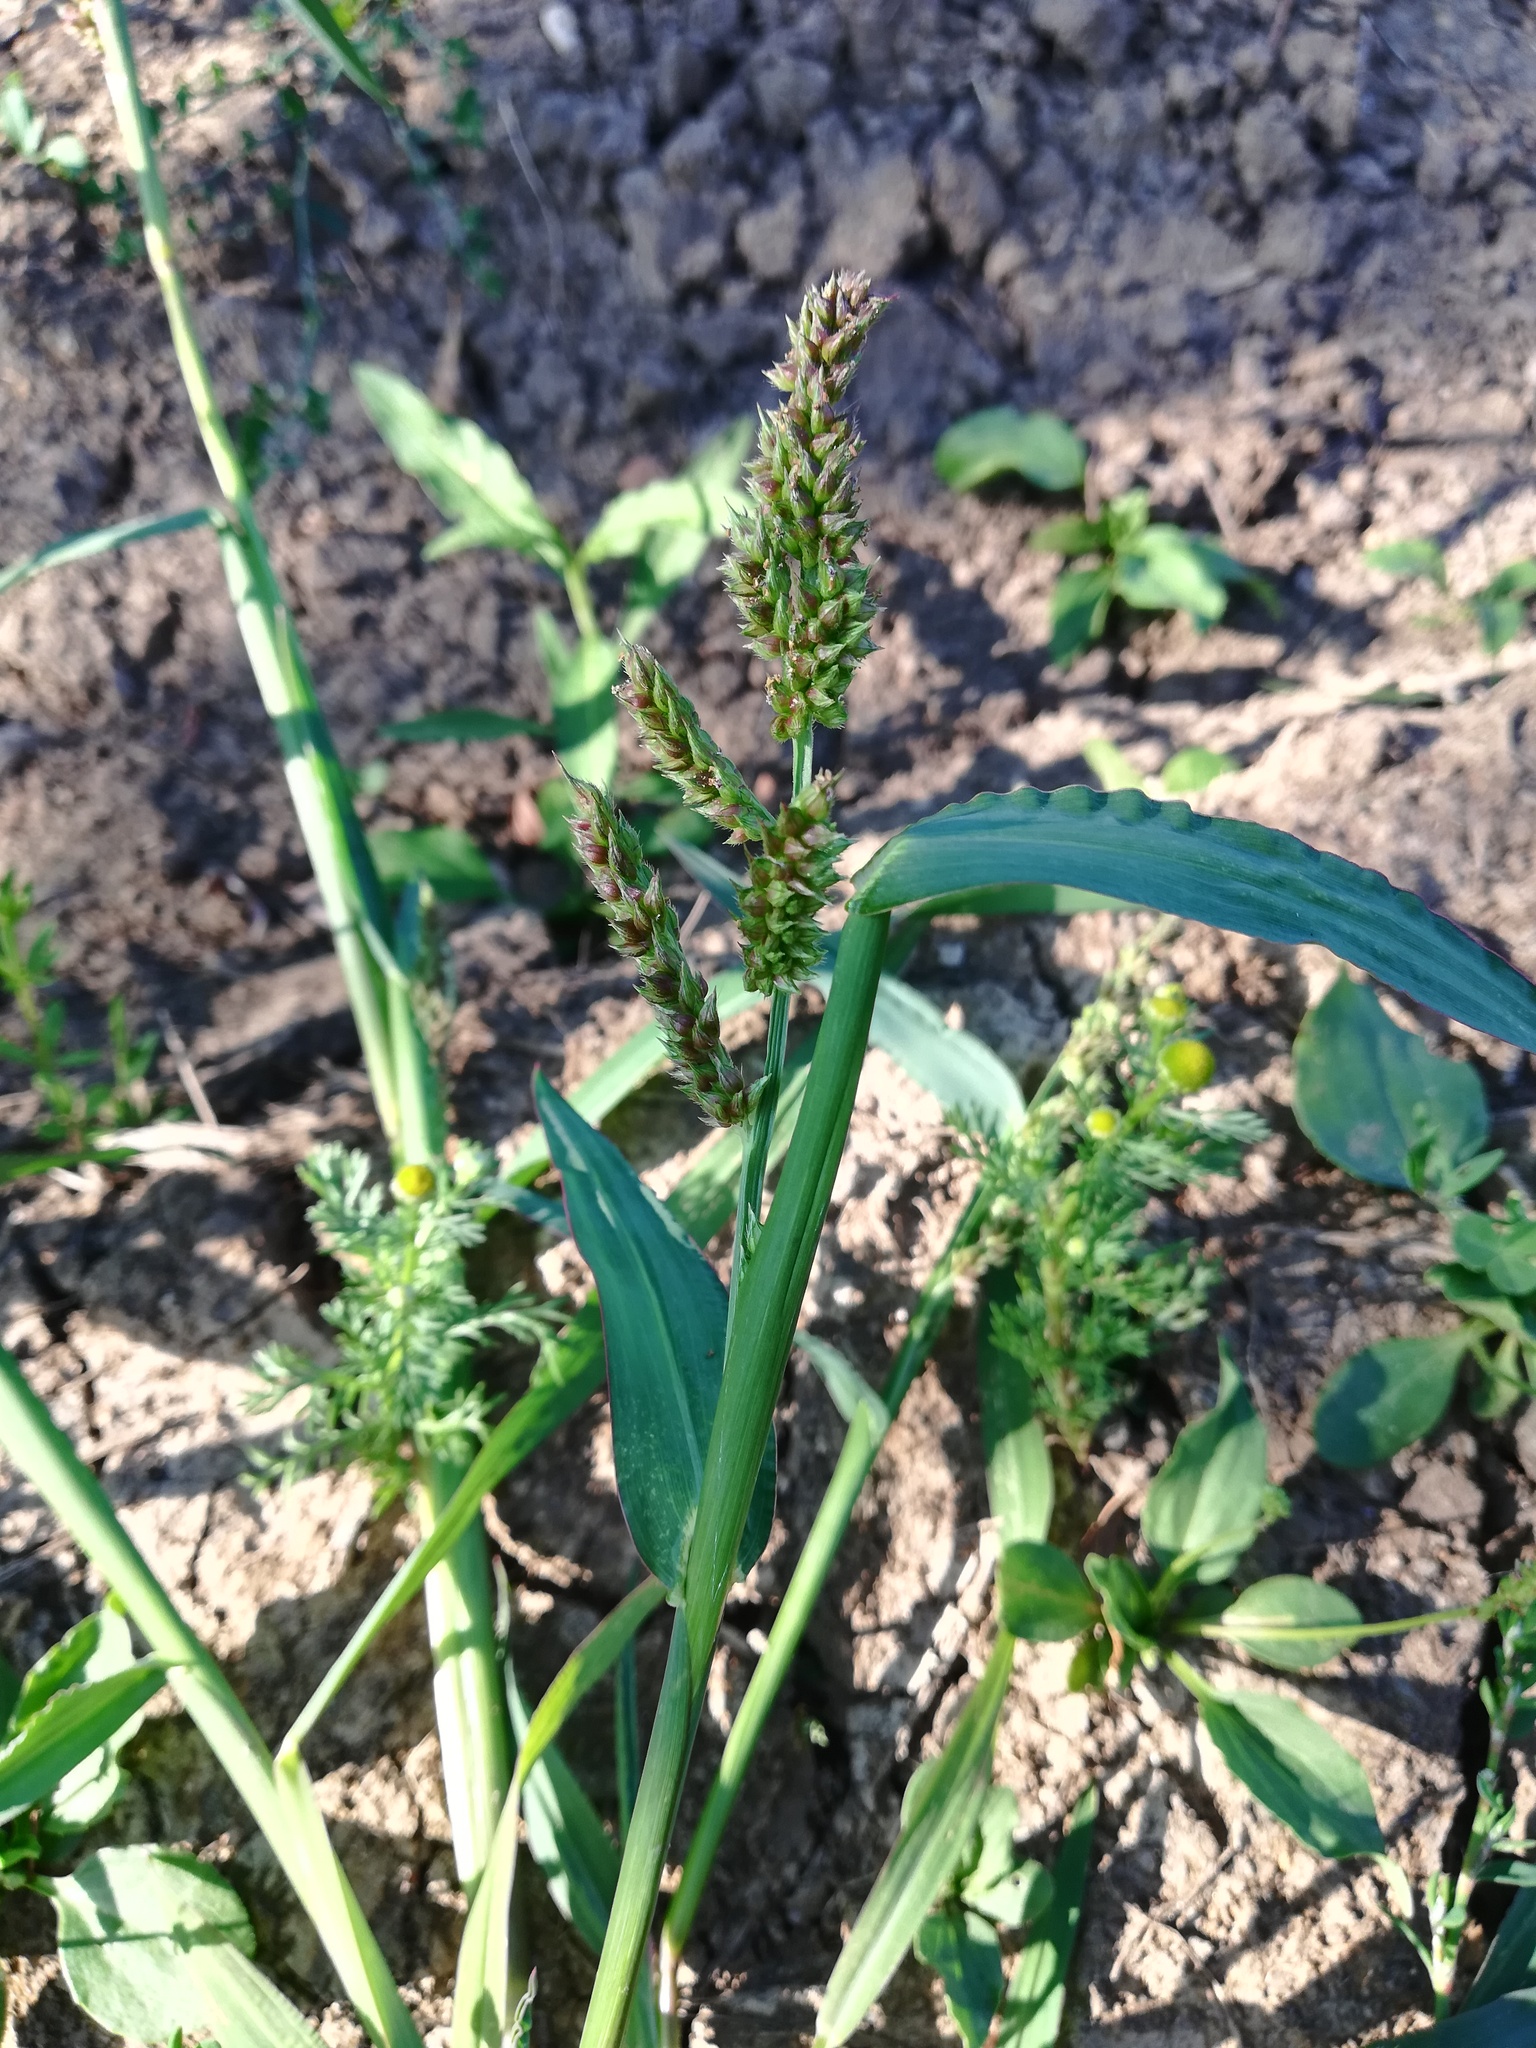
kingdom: Plantae
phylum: Tracheophyta
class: Liliopsida
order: Poales
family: Poaceae
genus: Echinochloa
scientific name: Echinochloa crus-galli
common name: Cockspur
